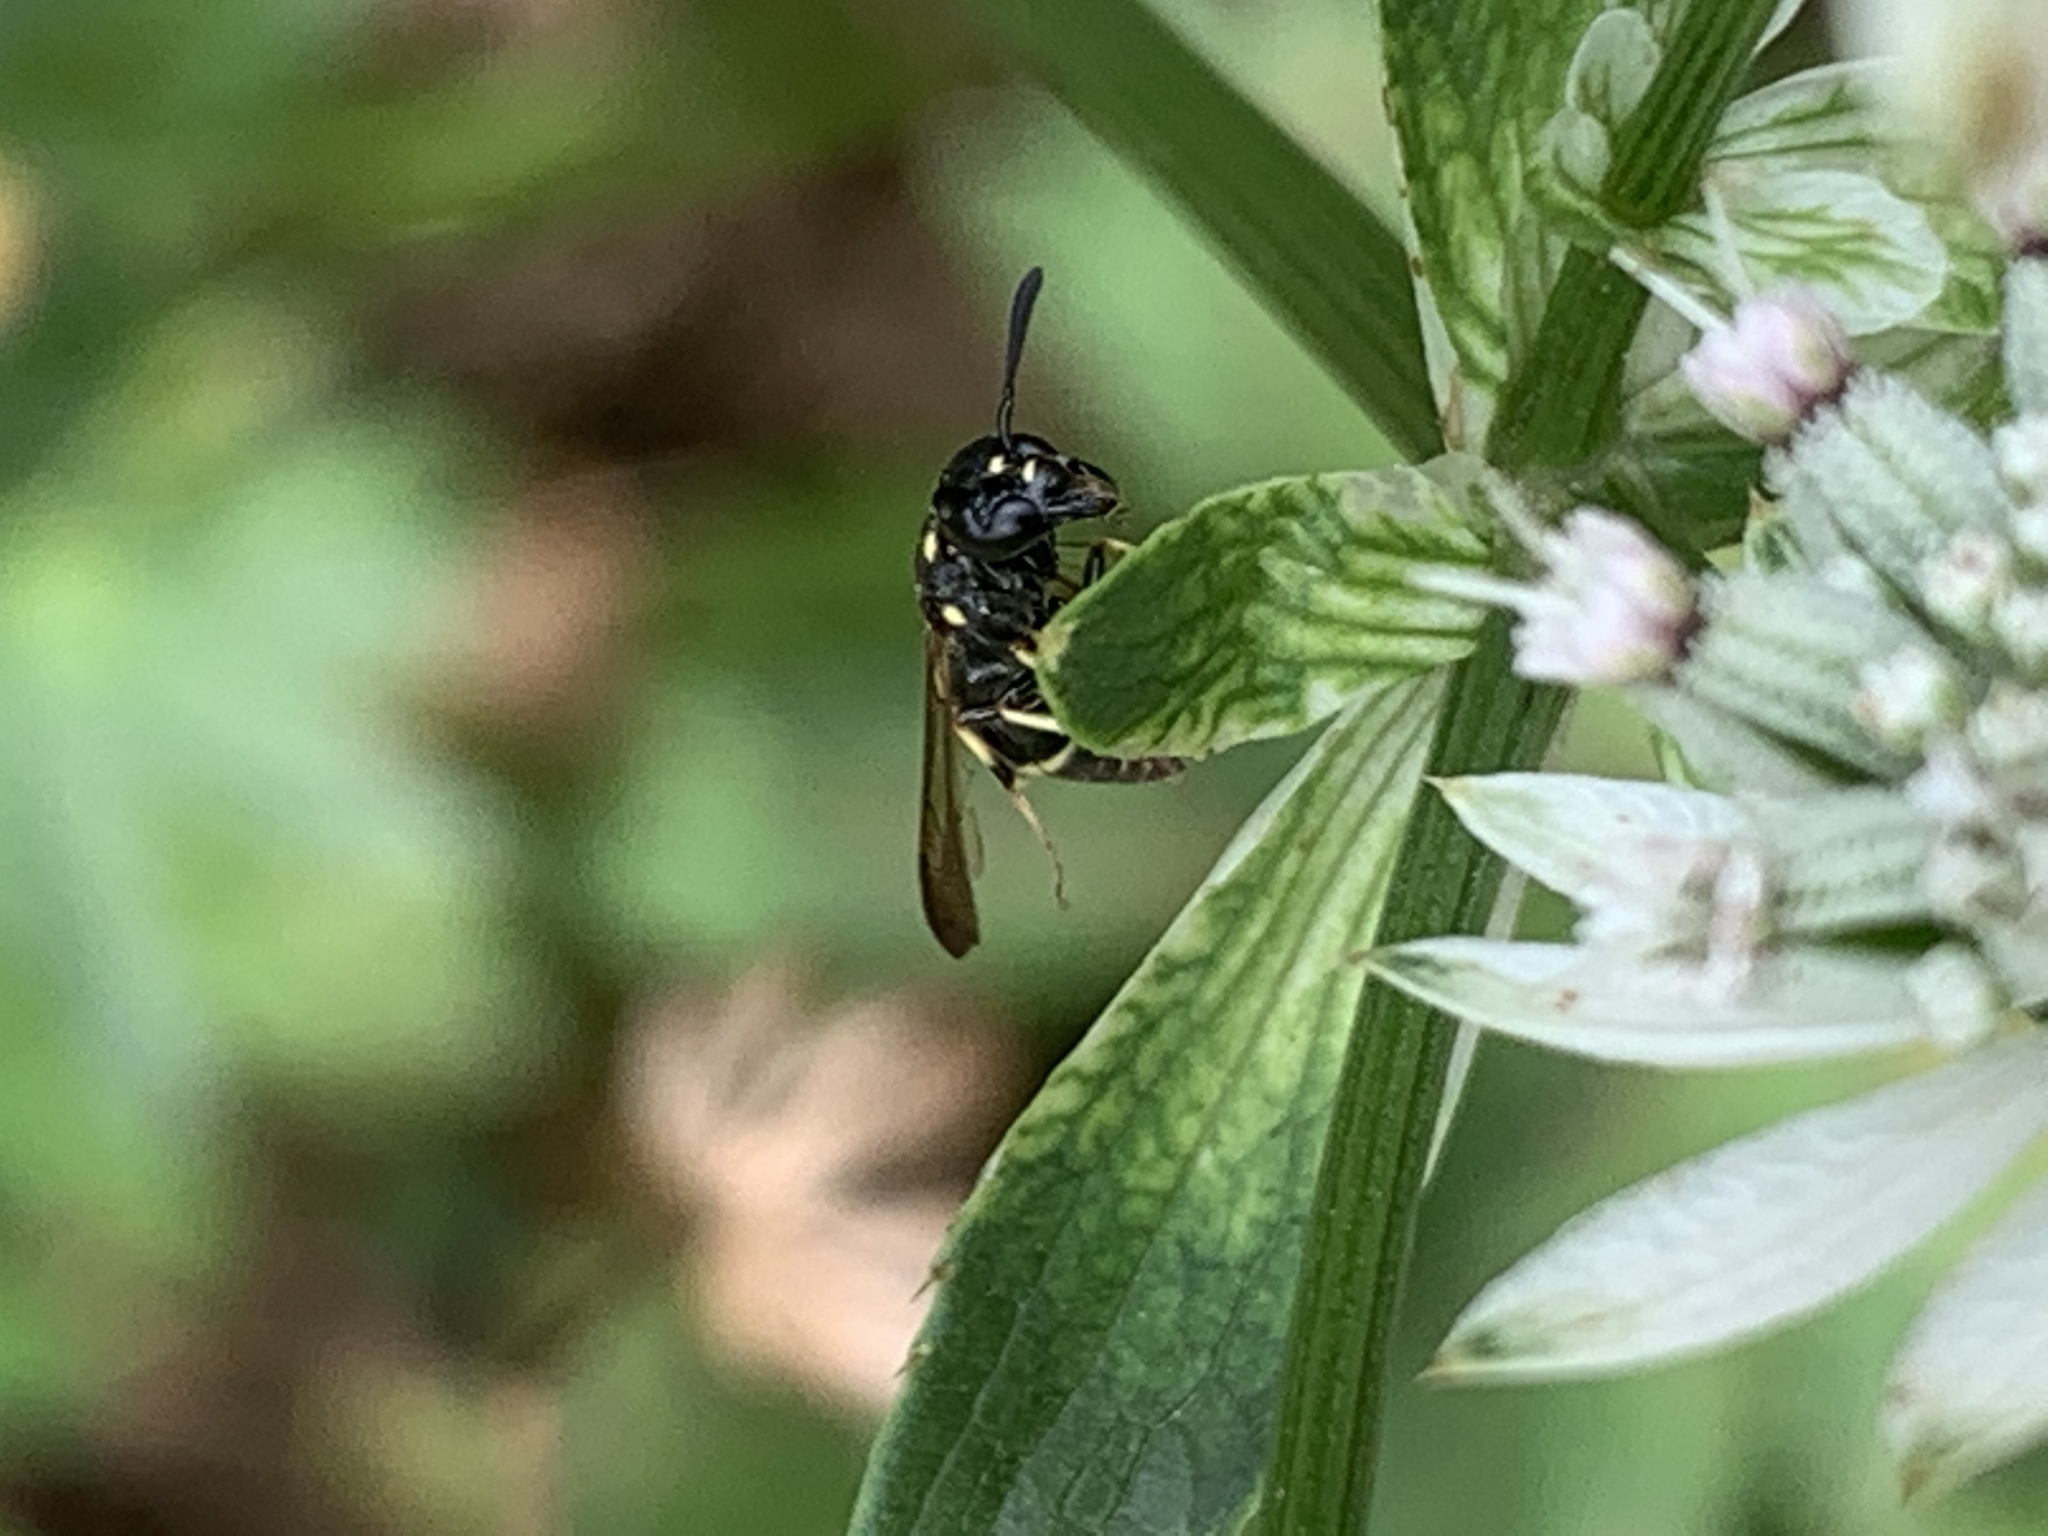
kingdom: Animalia
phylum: Arthropoda
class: Insecta
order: Hymenoptera
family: Eumenidae
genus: Symmorphus
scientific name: Symmorphus
